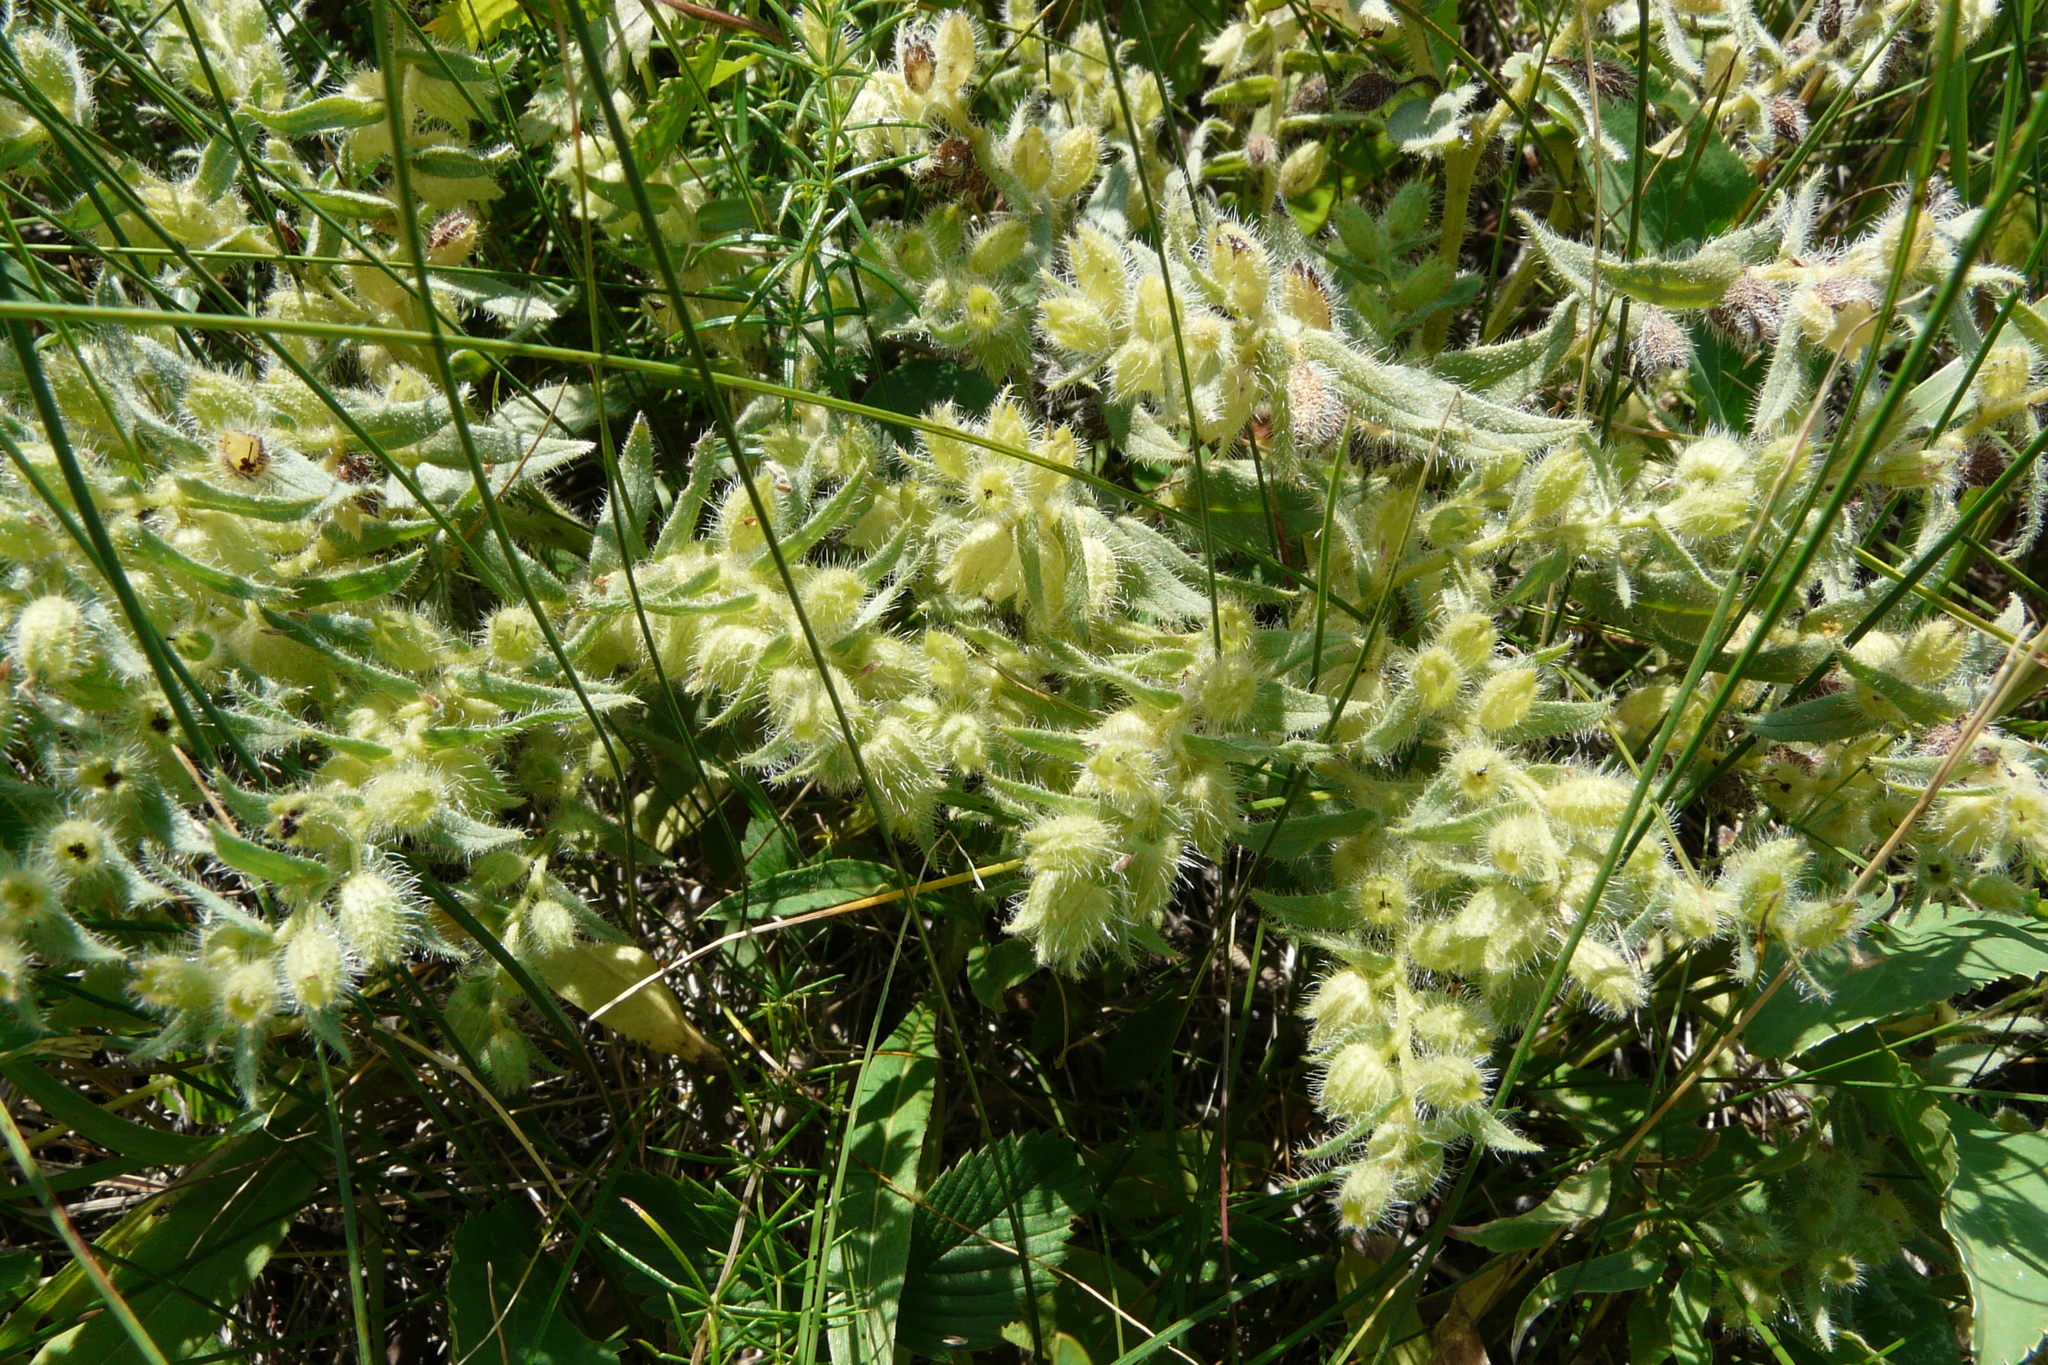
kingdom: Plantae
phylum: Tracheophyta
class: Magnoliopsida
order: Boraginales
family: Boraginaceae
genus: Nonea
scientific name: Nonea pulla
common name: Brown nonea
